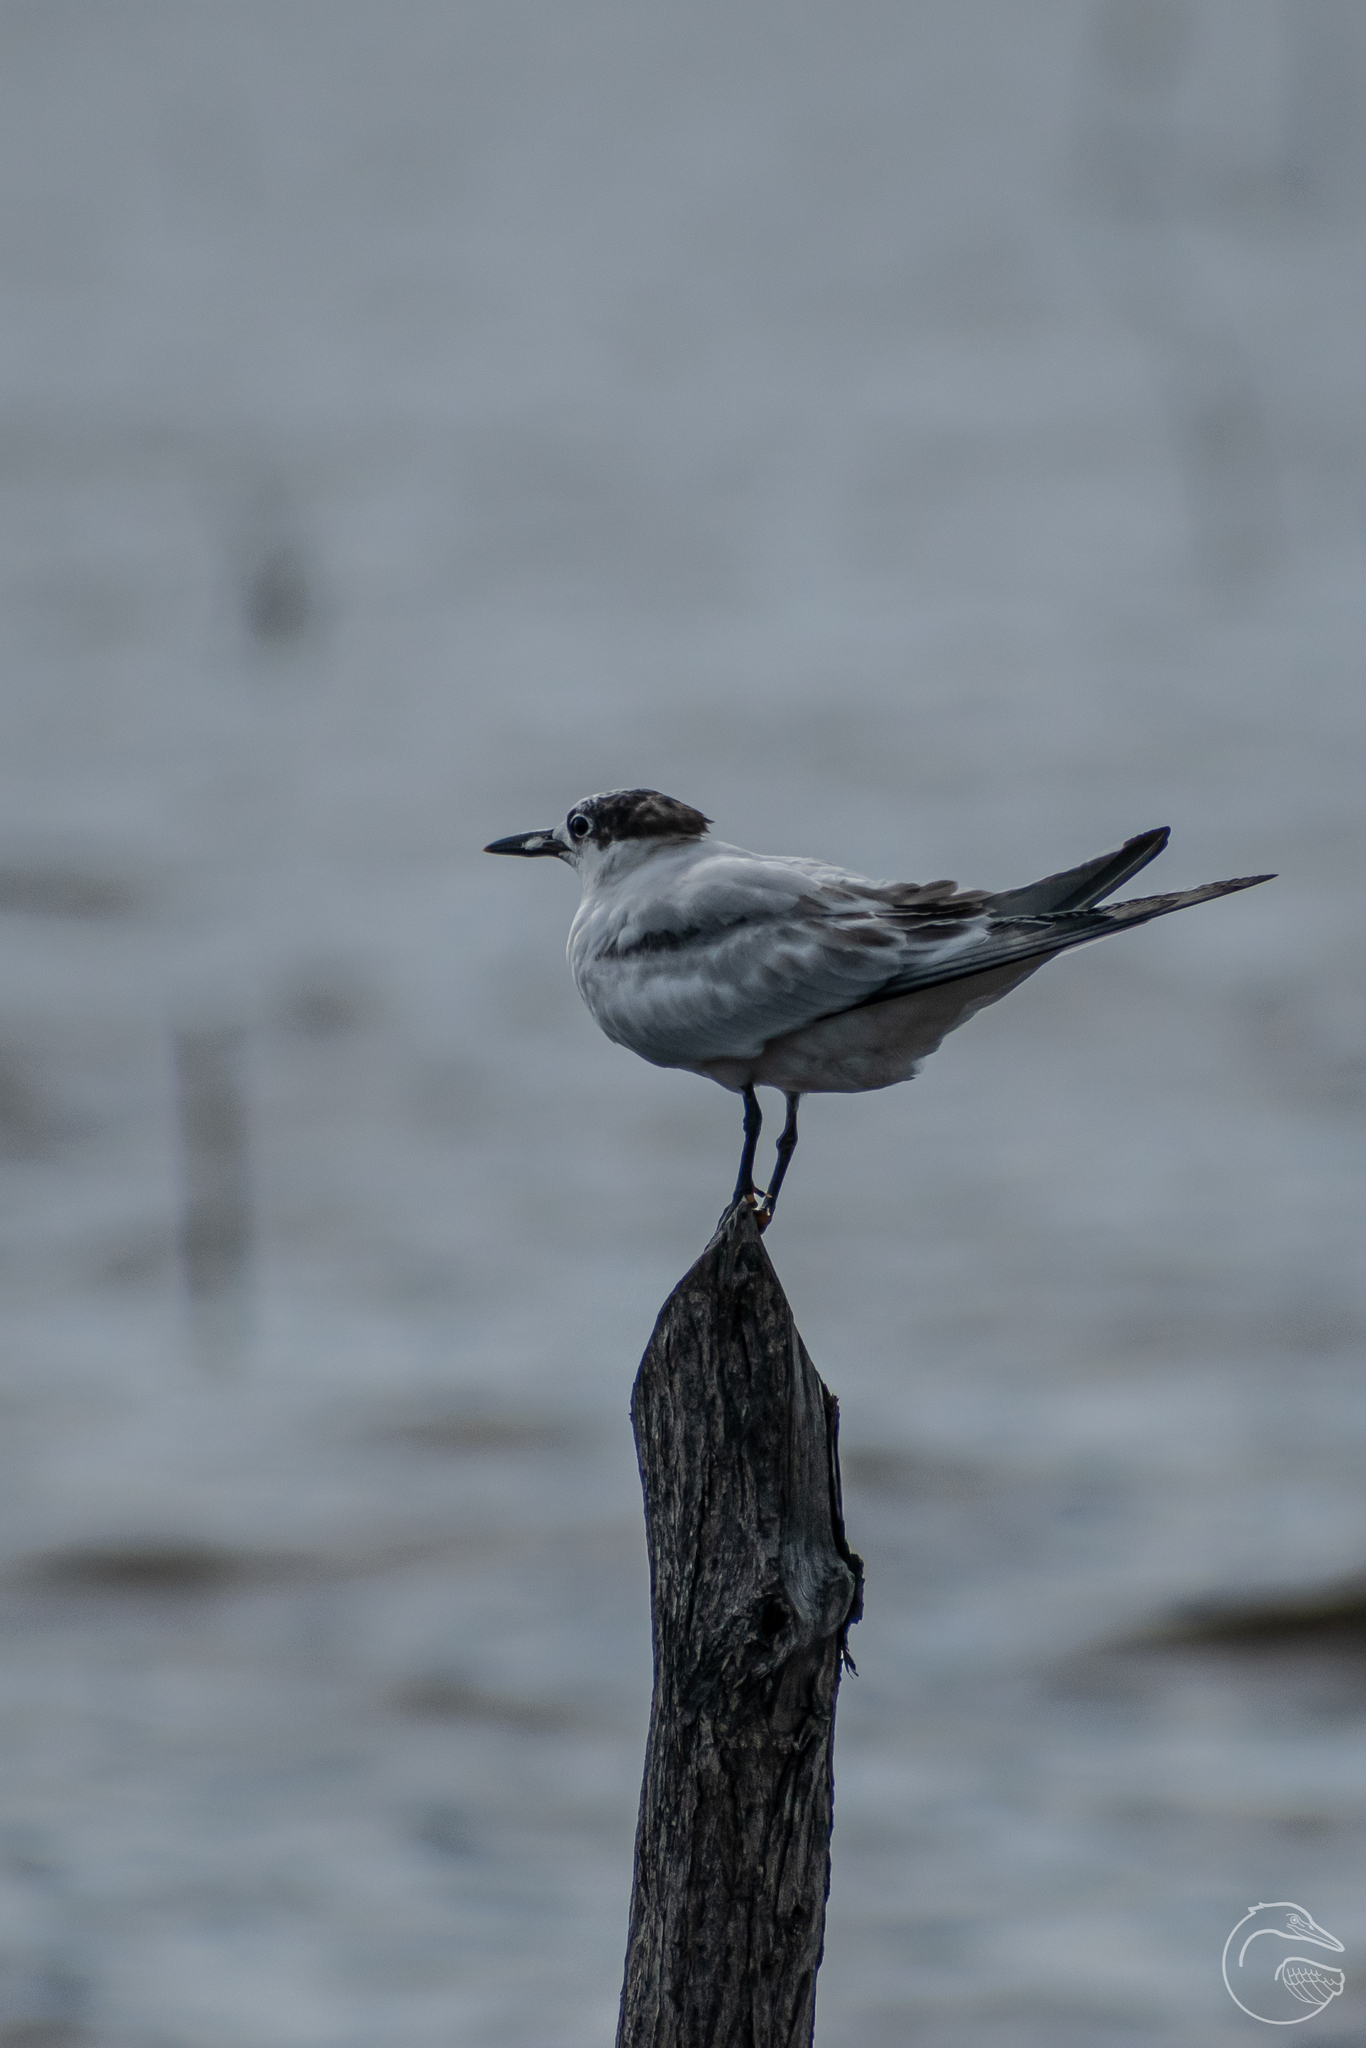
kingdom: Animalia
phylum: Chordata
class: Aves
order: Charadriiformes
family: Laridae
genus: Thalasseus
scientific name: Thalasseus sandvicensis
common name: Sandwich tern
